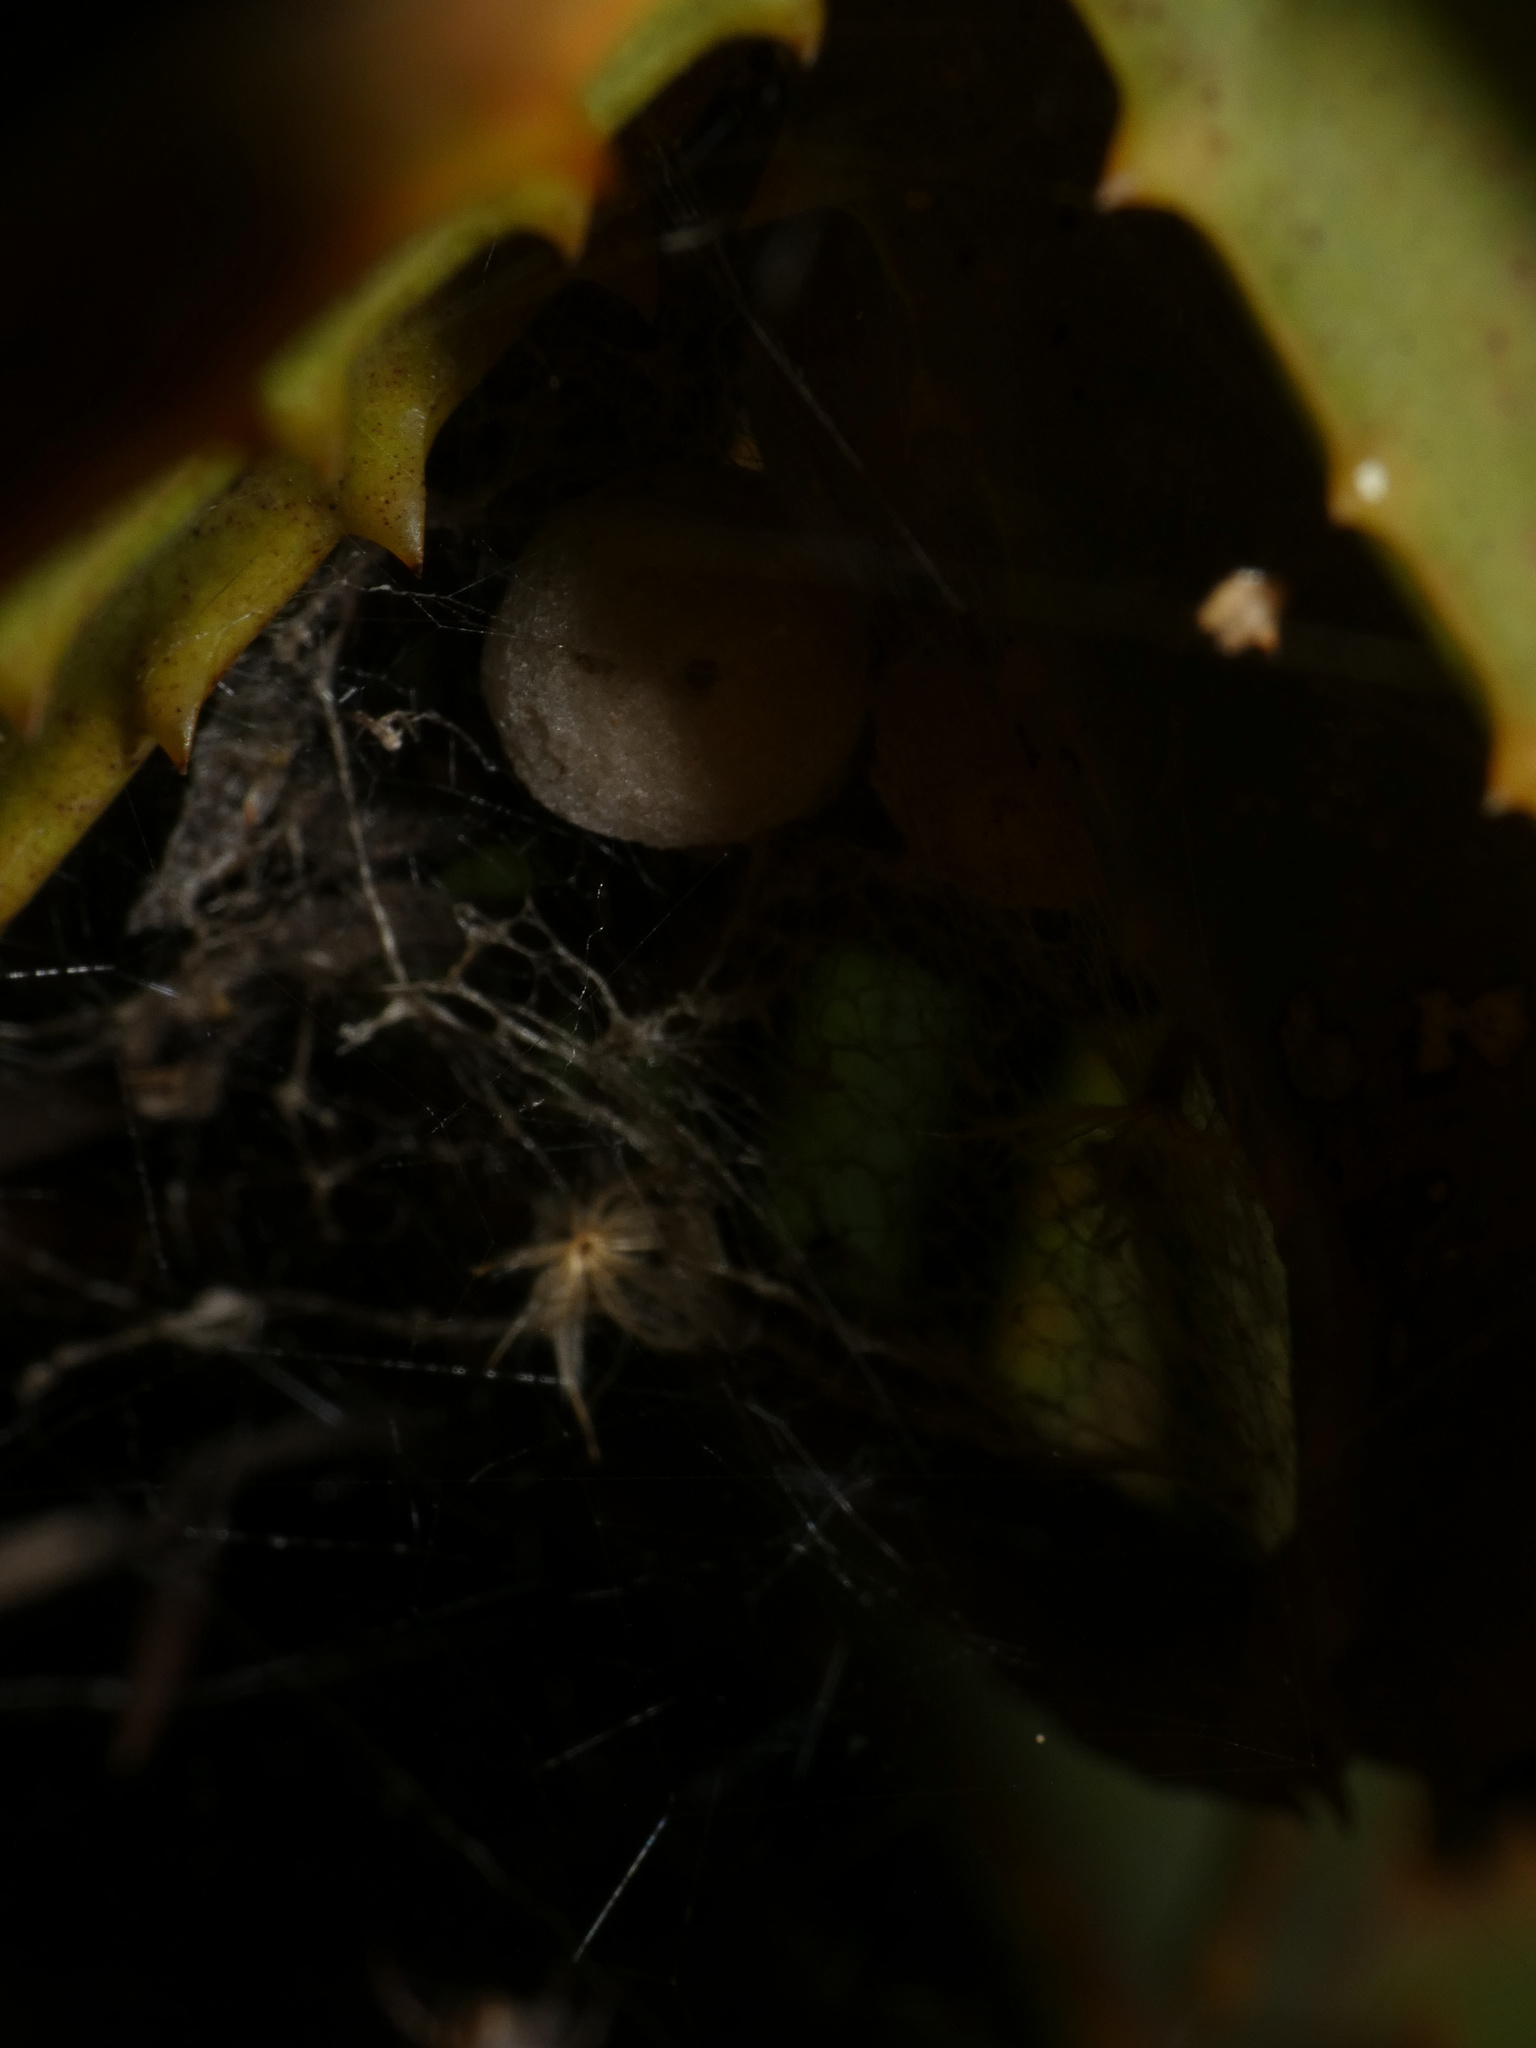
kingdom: Animalia
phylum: Arthropoda
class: Arachnida
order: Araneae
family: Theridiidae
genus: Latrodectus
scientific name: Latrodectus rhodesiensis
